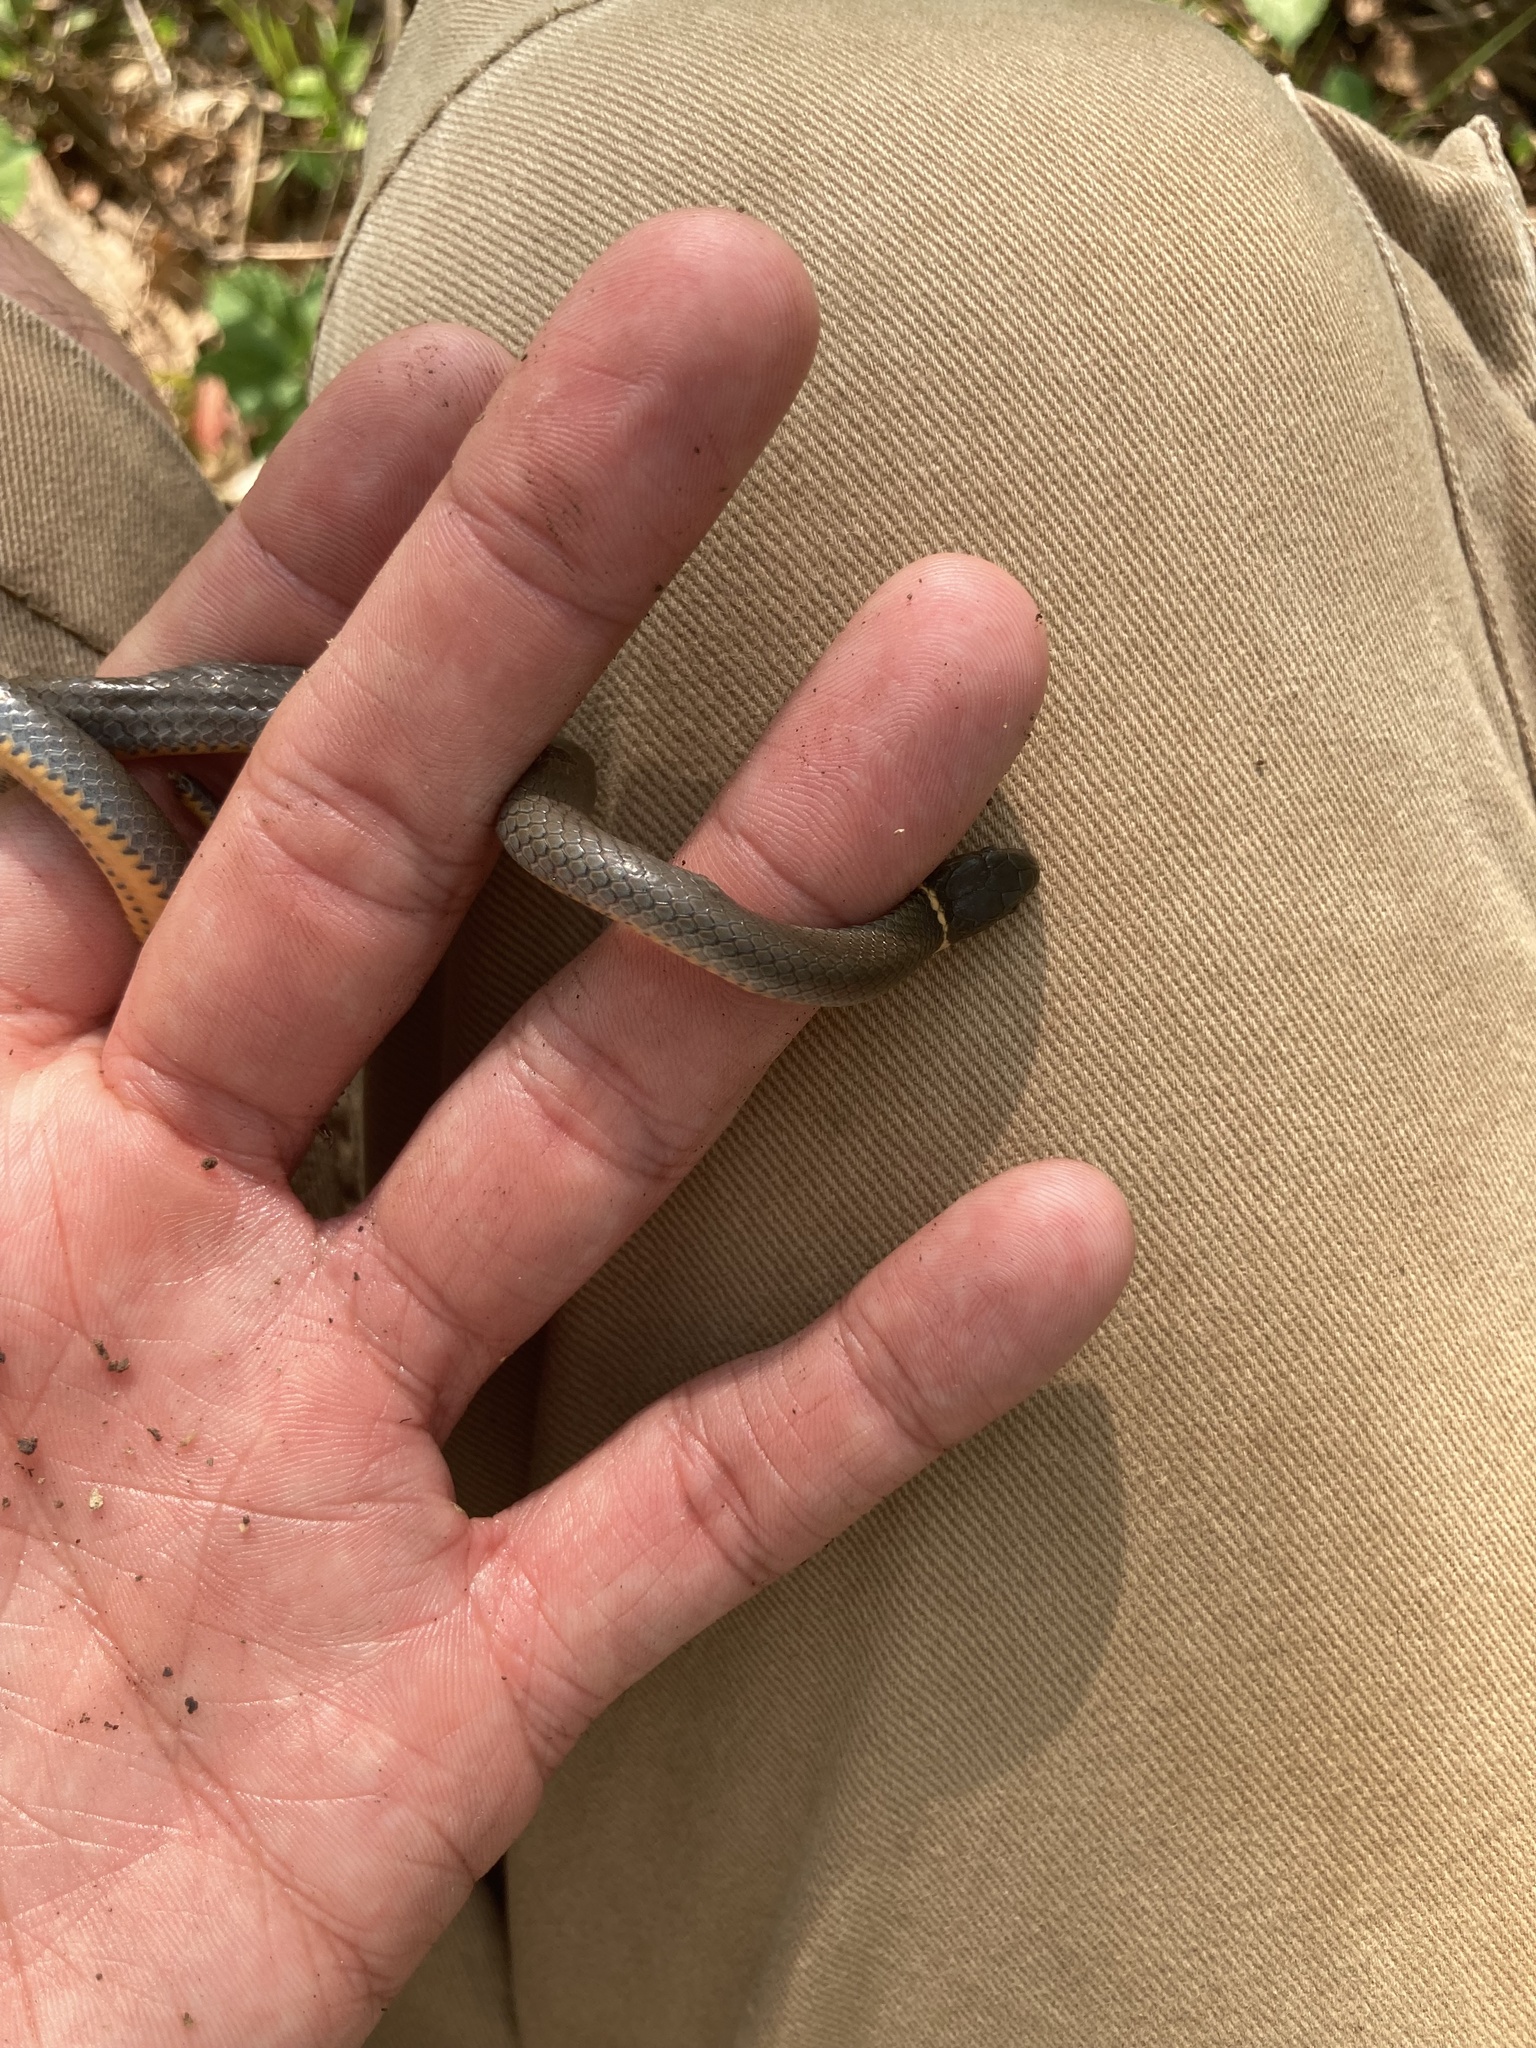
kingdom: Animalia
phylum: Chordata
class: Squamata
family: Colubridae
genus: Diadophis
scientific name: Diadophis punctatus
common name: Ringneck snake
